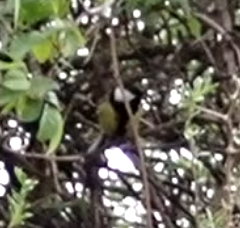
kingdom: Animalia
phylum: Chordata
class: Aves
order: Passeriformes
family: Paridae
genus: Parus
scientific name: Parus major
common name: Great tit
